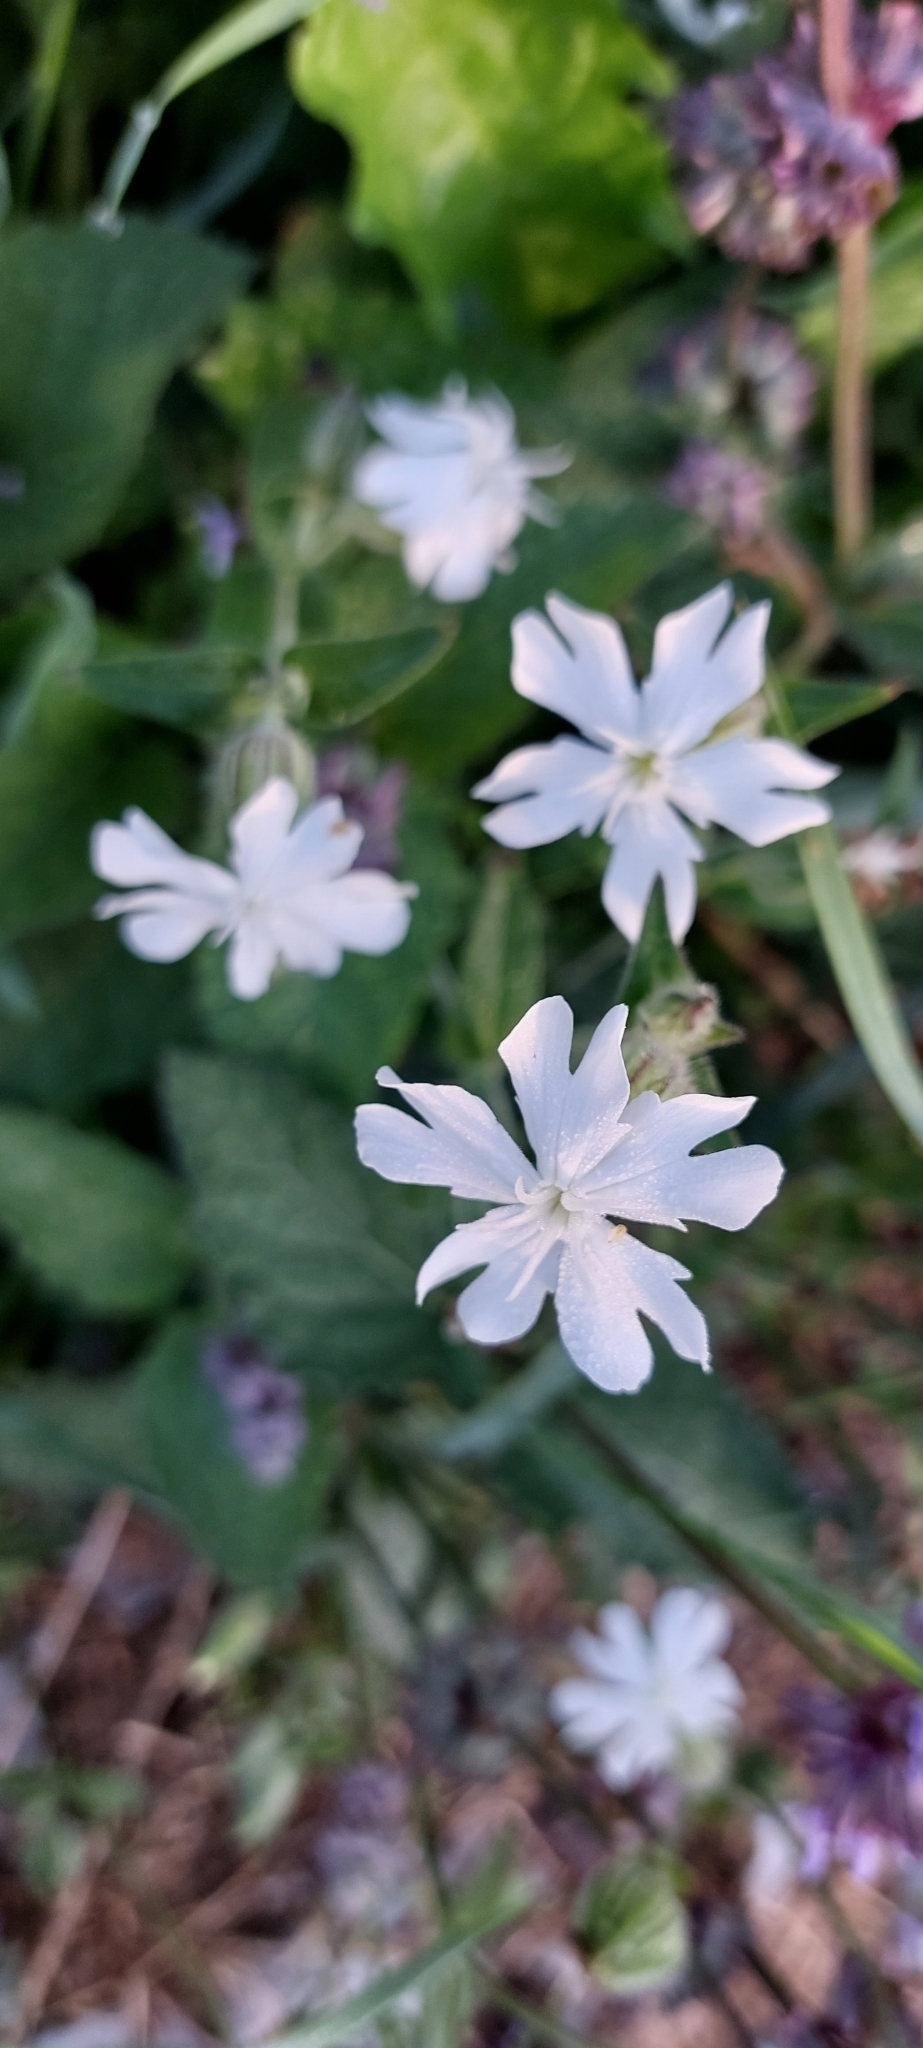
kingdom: Plantae
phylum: Tracheophyta
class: Magnoliopsida
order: Caryophyllales
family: Caryophyllaceae
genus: Silene
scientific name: Silene latifolia
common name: White campion
